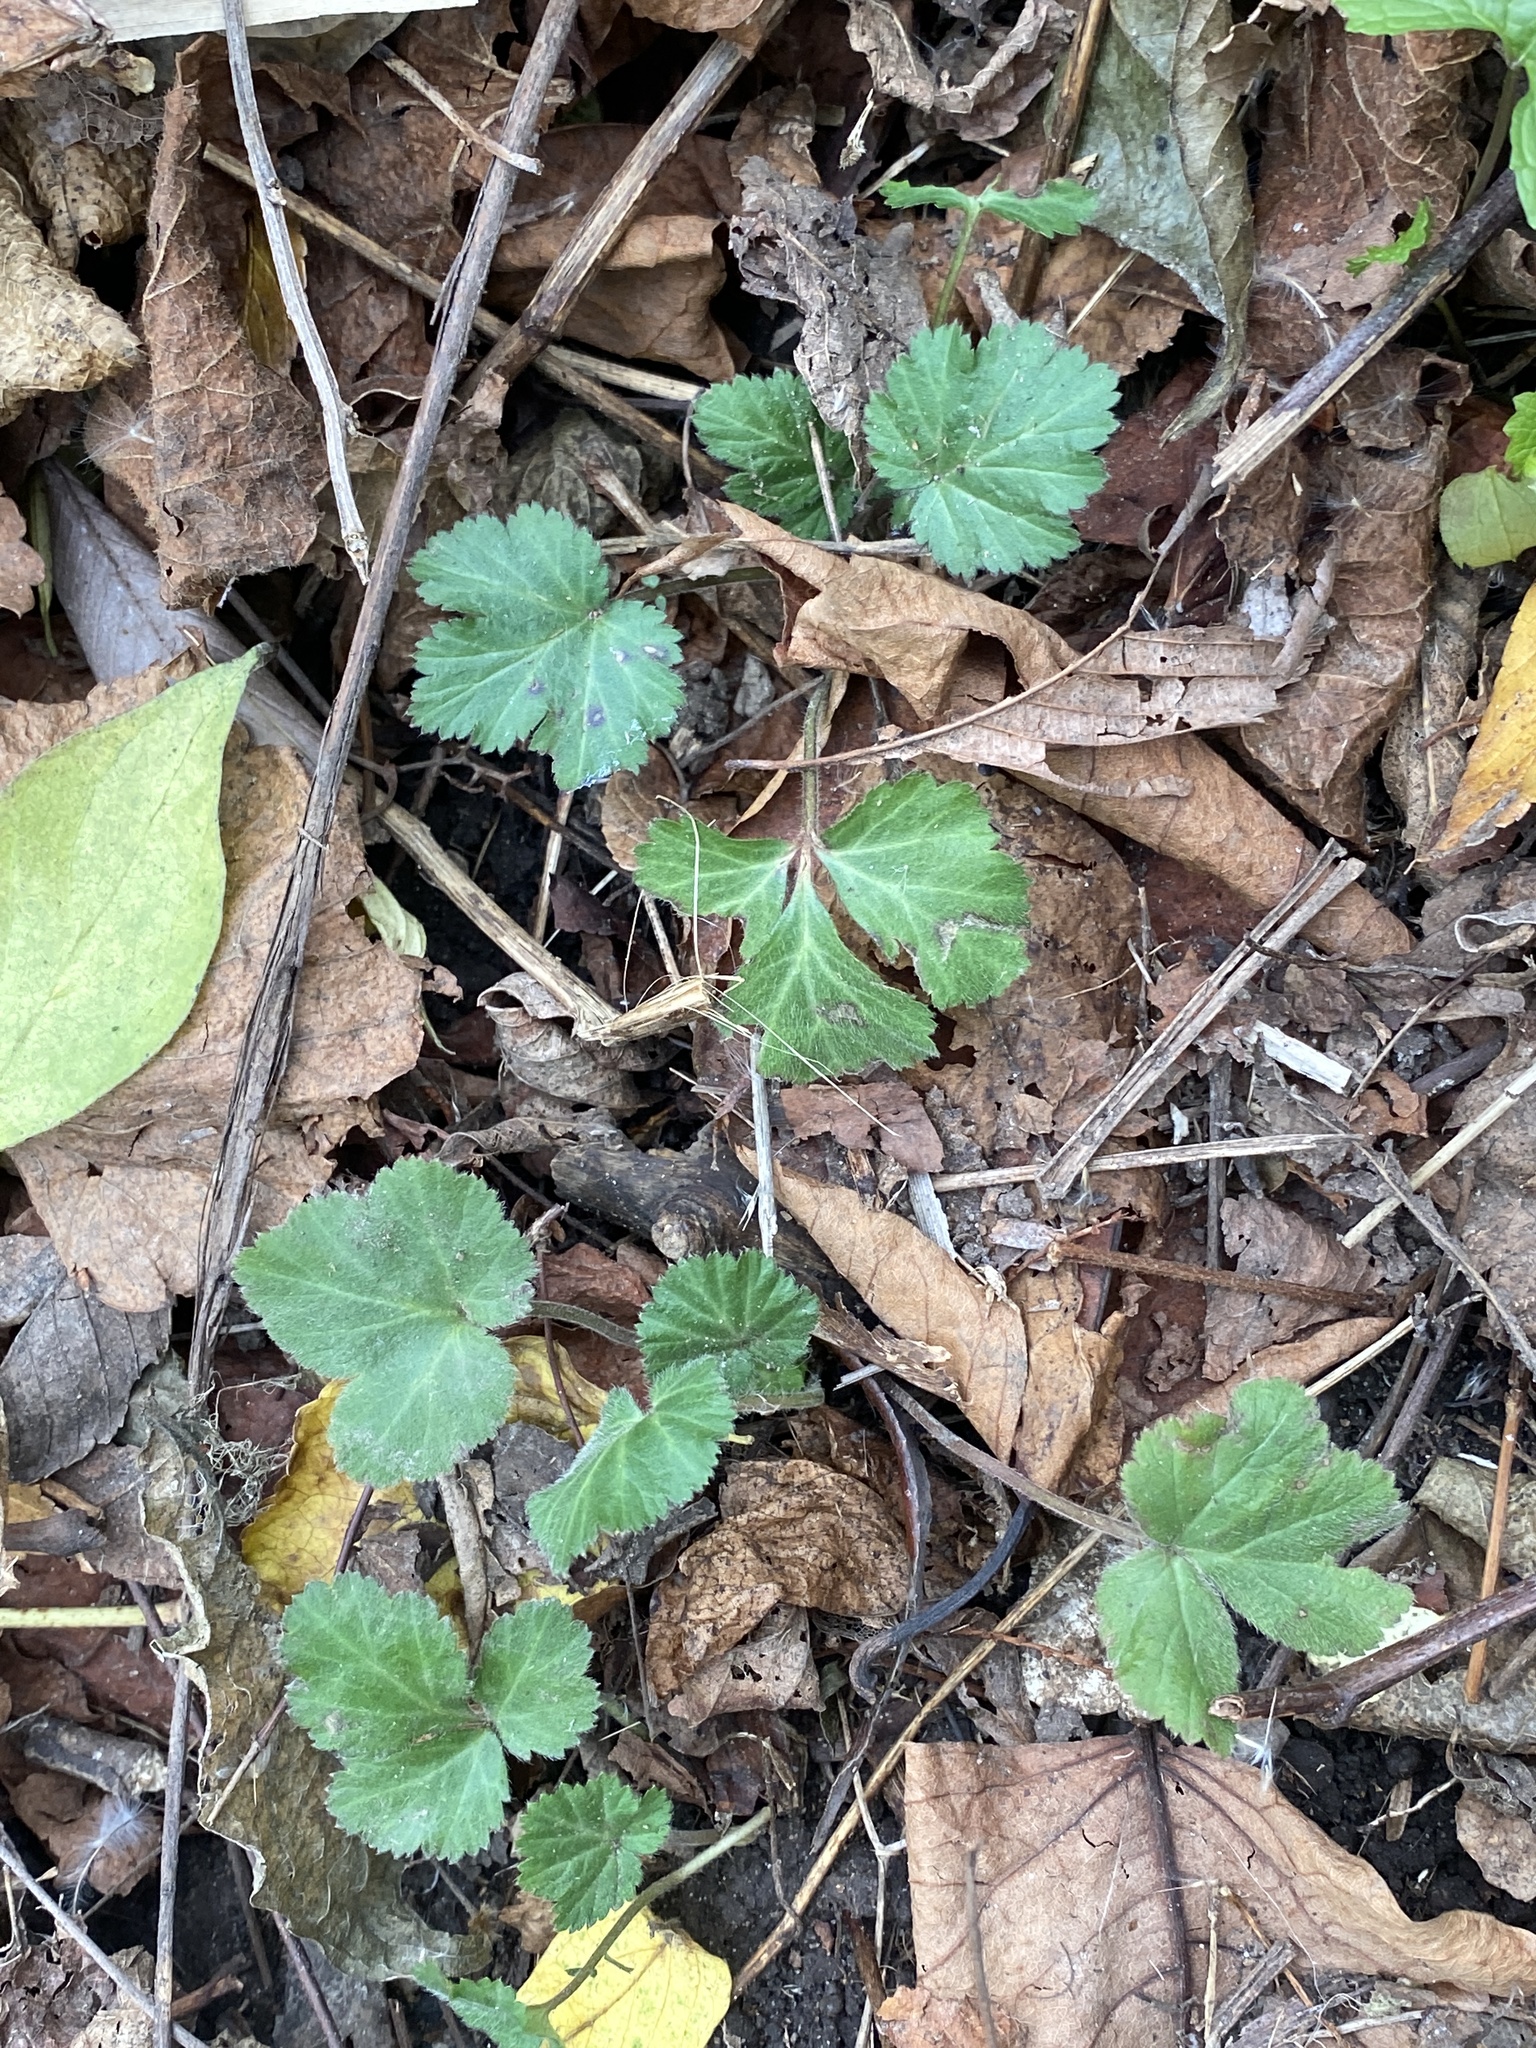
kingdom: Plantae
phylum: Tracheophyta
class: Magnoliopsida
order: Rosales
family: Rosaceae
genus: Geum
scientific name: Geum canadense
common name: White avens
